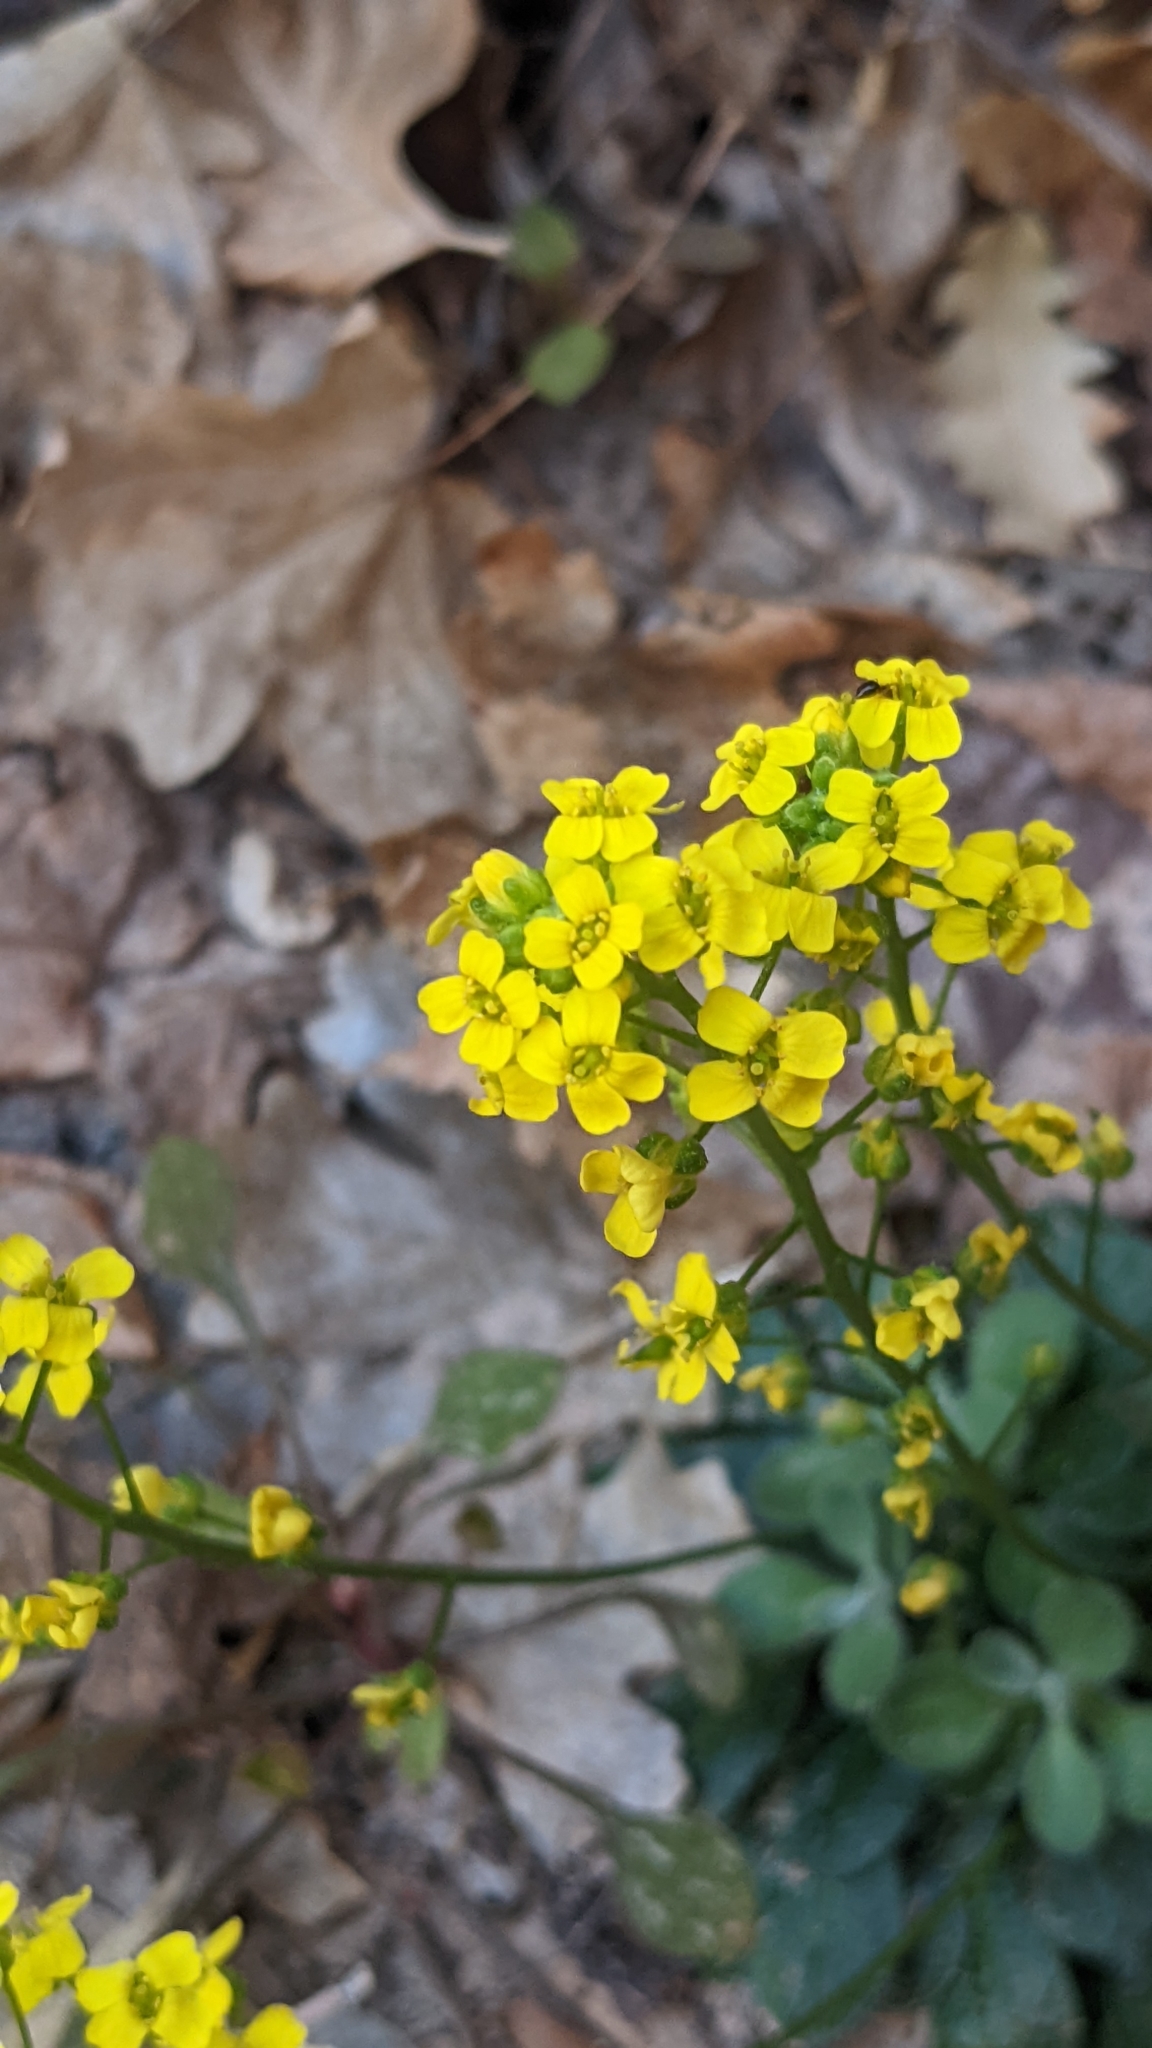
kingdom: Plantae
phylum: Tracheophyta
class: Magnoliopsida
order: Brassicales
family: Brassicaceae
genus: Draba
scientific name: Draba zionensis
